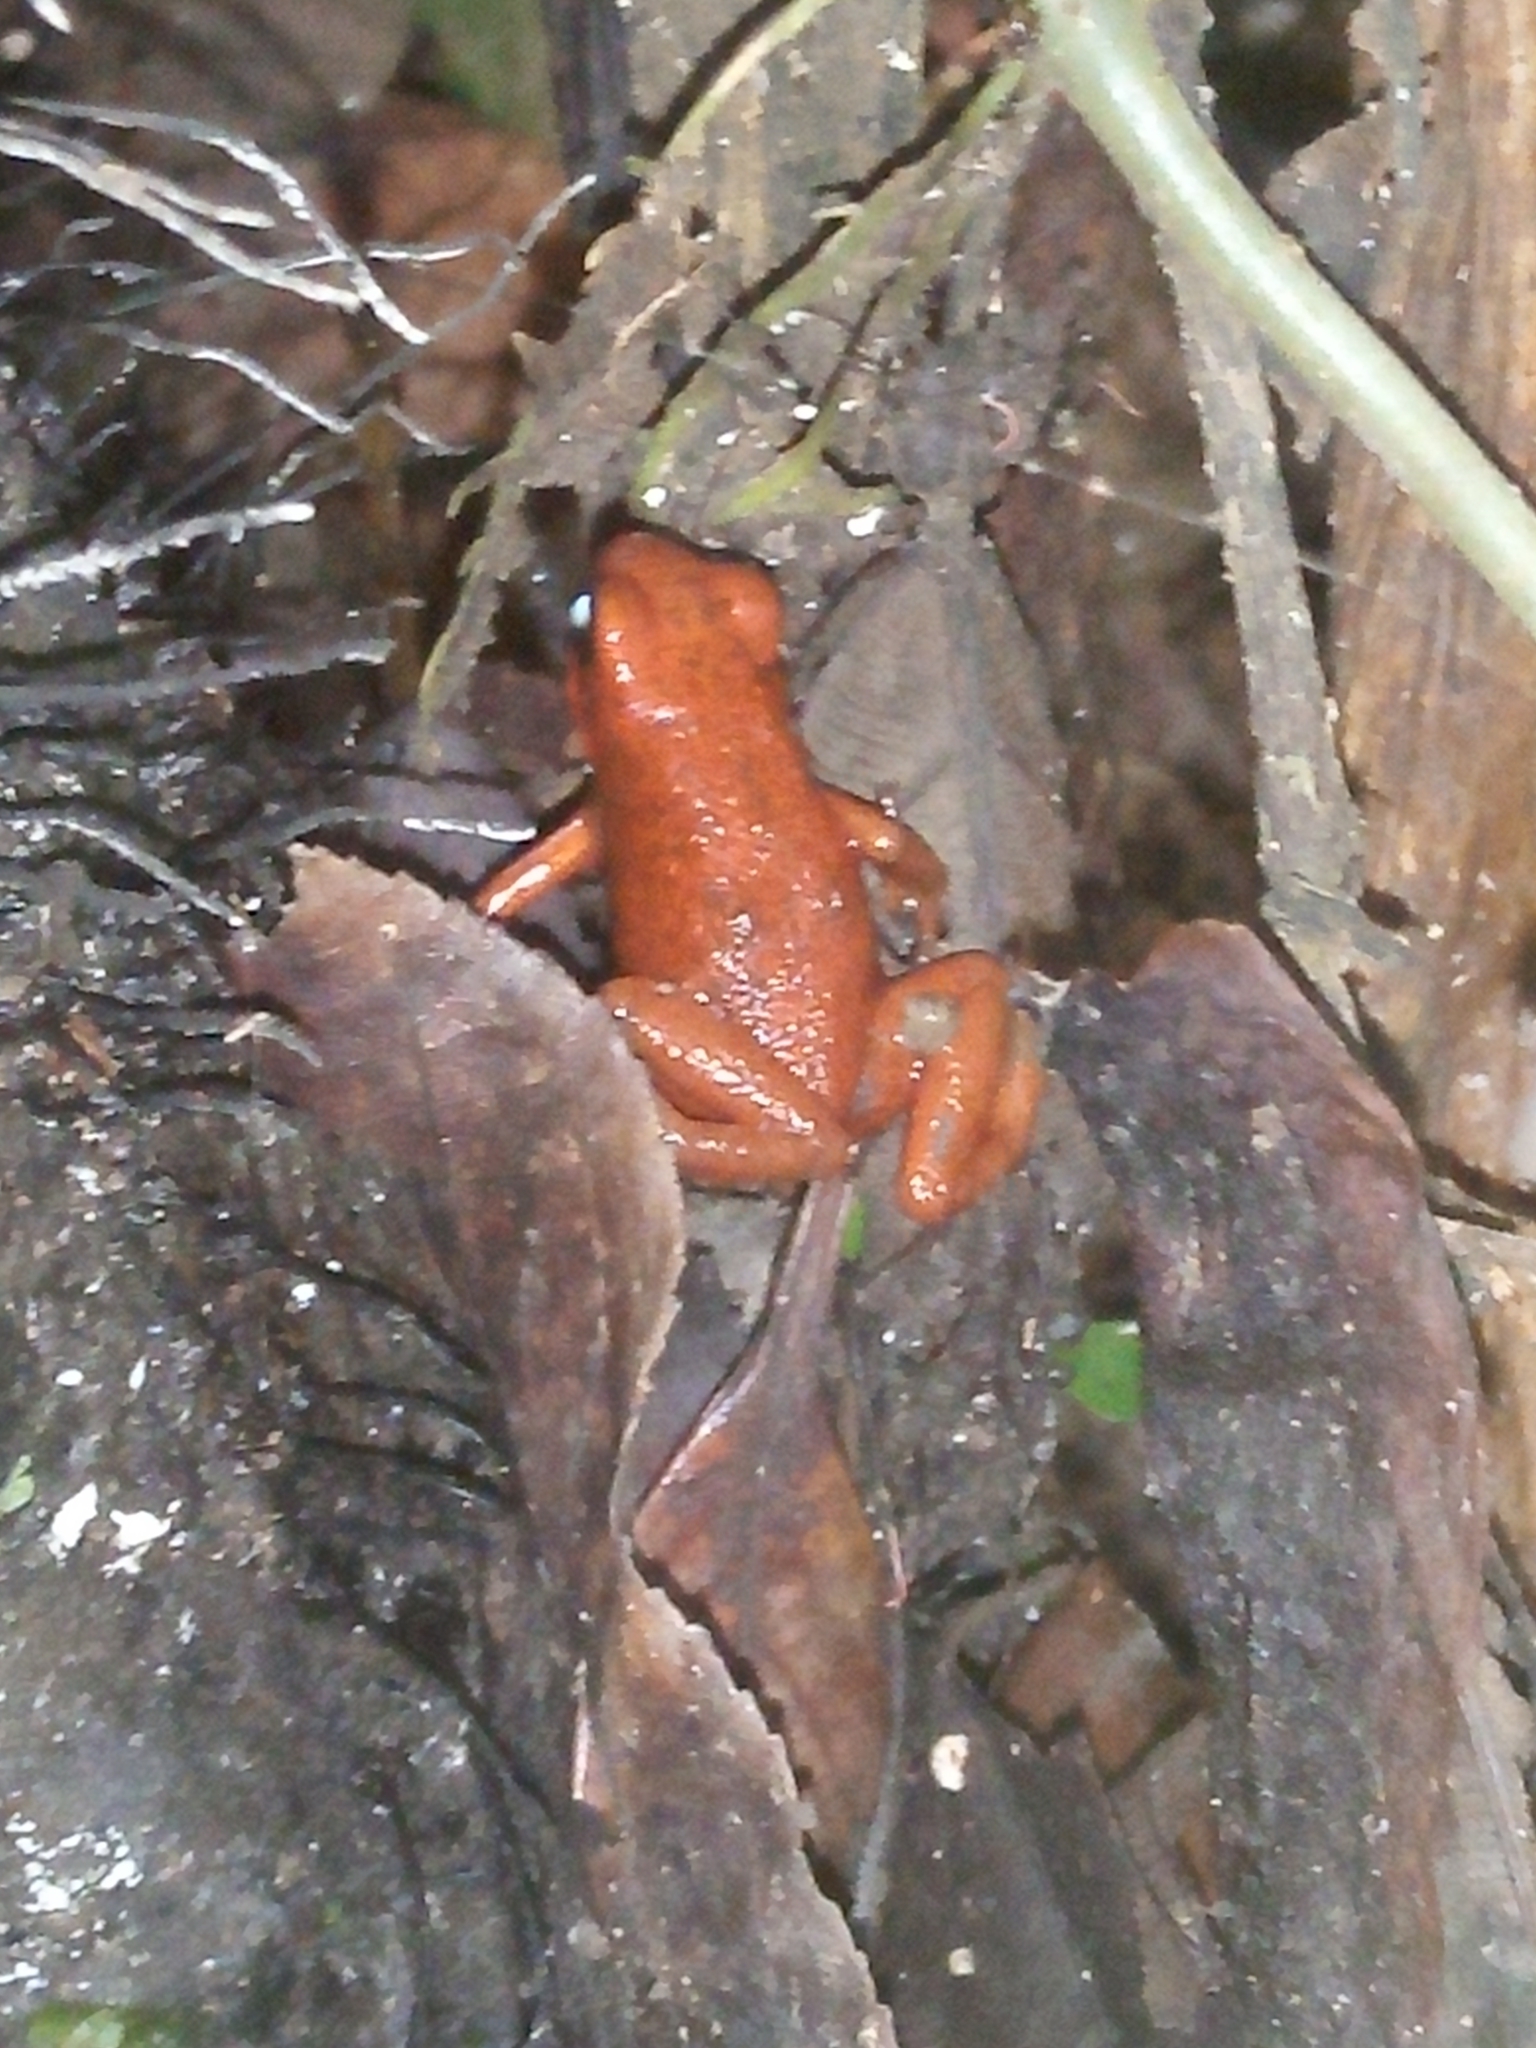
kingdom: Animalia
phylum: Chordata
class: Amphibia
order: Anura
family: Dendrobatidae
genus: Oophaga
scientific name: Oophaga pumilio
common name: Flaming poison frog
